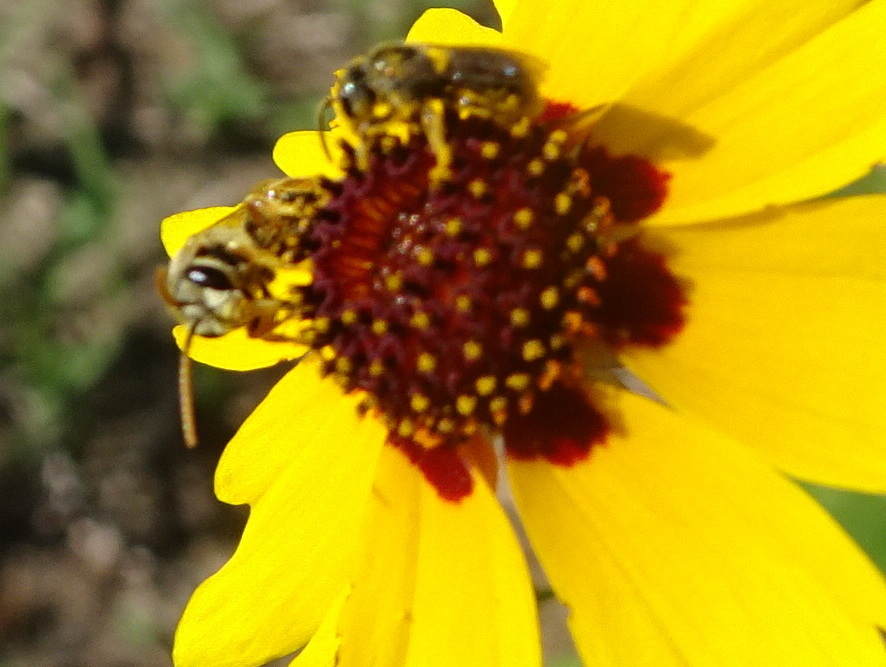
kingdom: Animalia
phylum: Arthropoda
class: Insecta
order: Hymenoptera
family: Halictidae
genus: Halictus
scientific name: Halictus ligatus
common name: Ligated furrow bee
